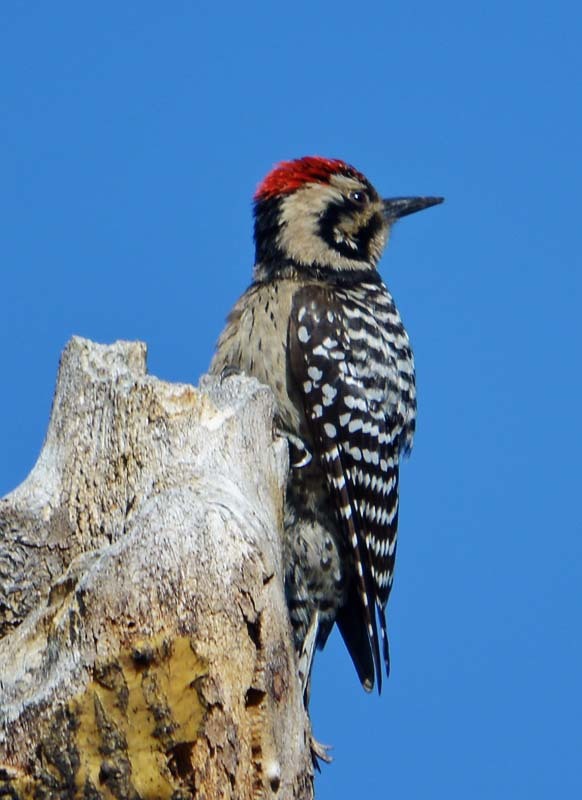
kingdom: Animalia
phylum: Chordata
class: Aves
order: Piciformes
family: Picidae
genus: Dryobates
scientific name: Dryobates scalaris
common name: Ladder-backed woodpecker
